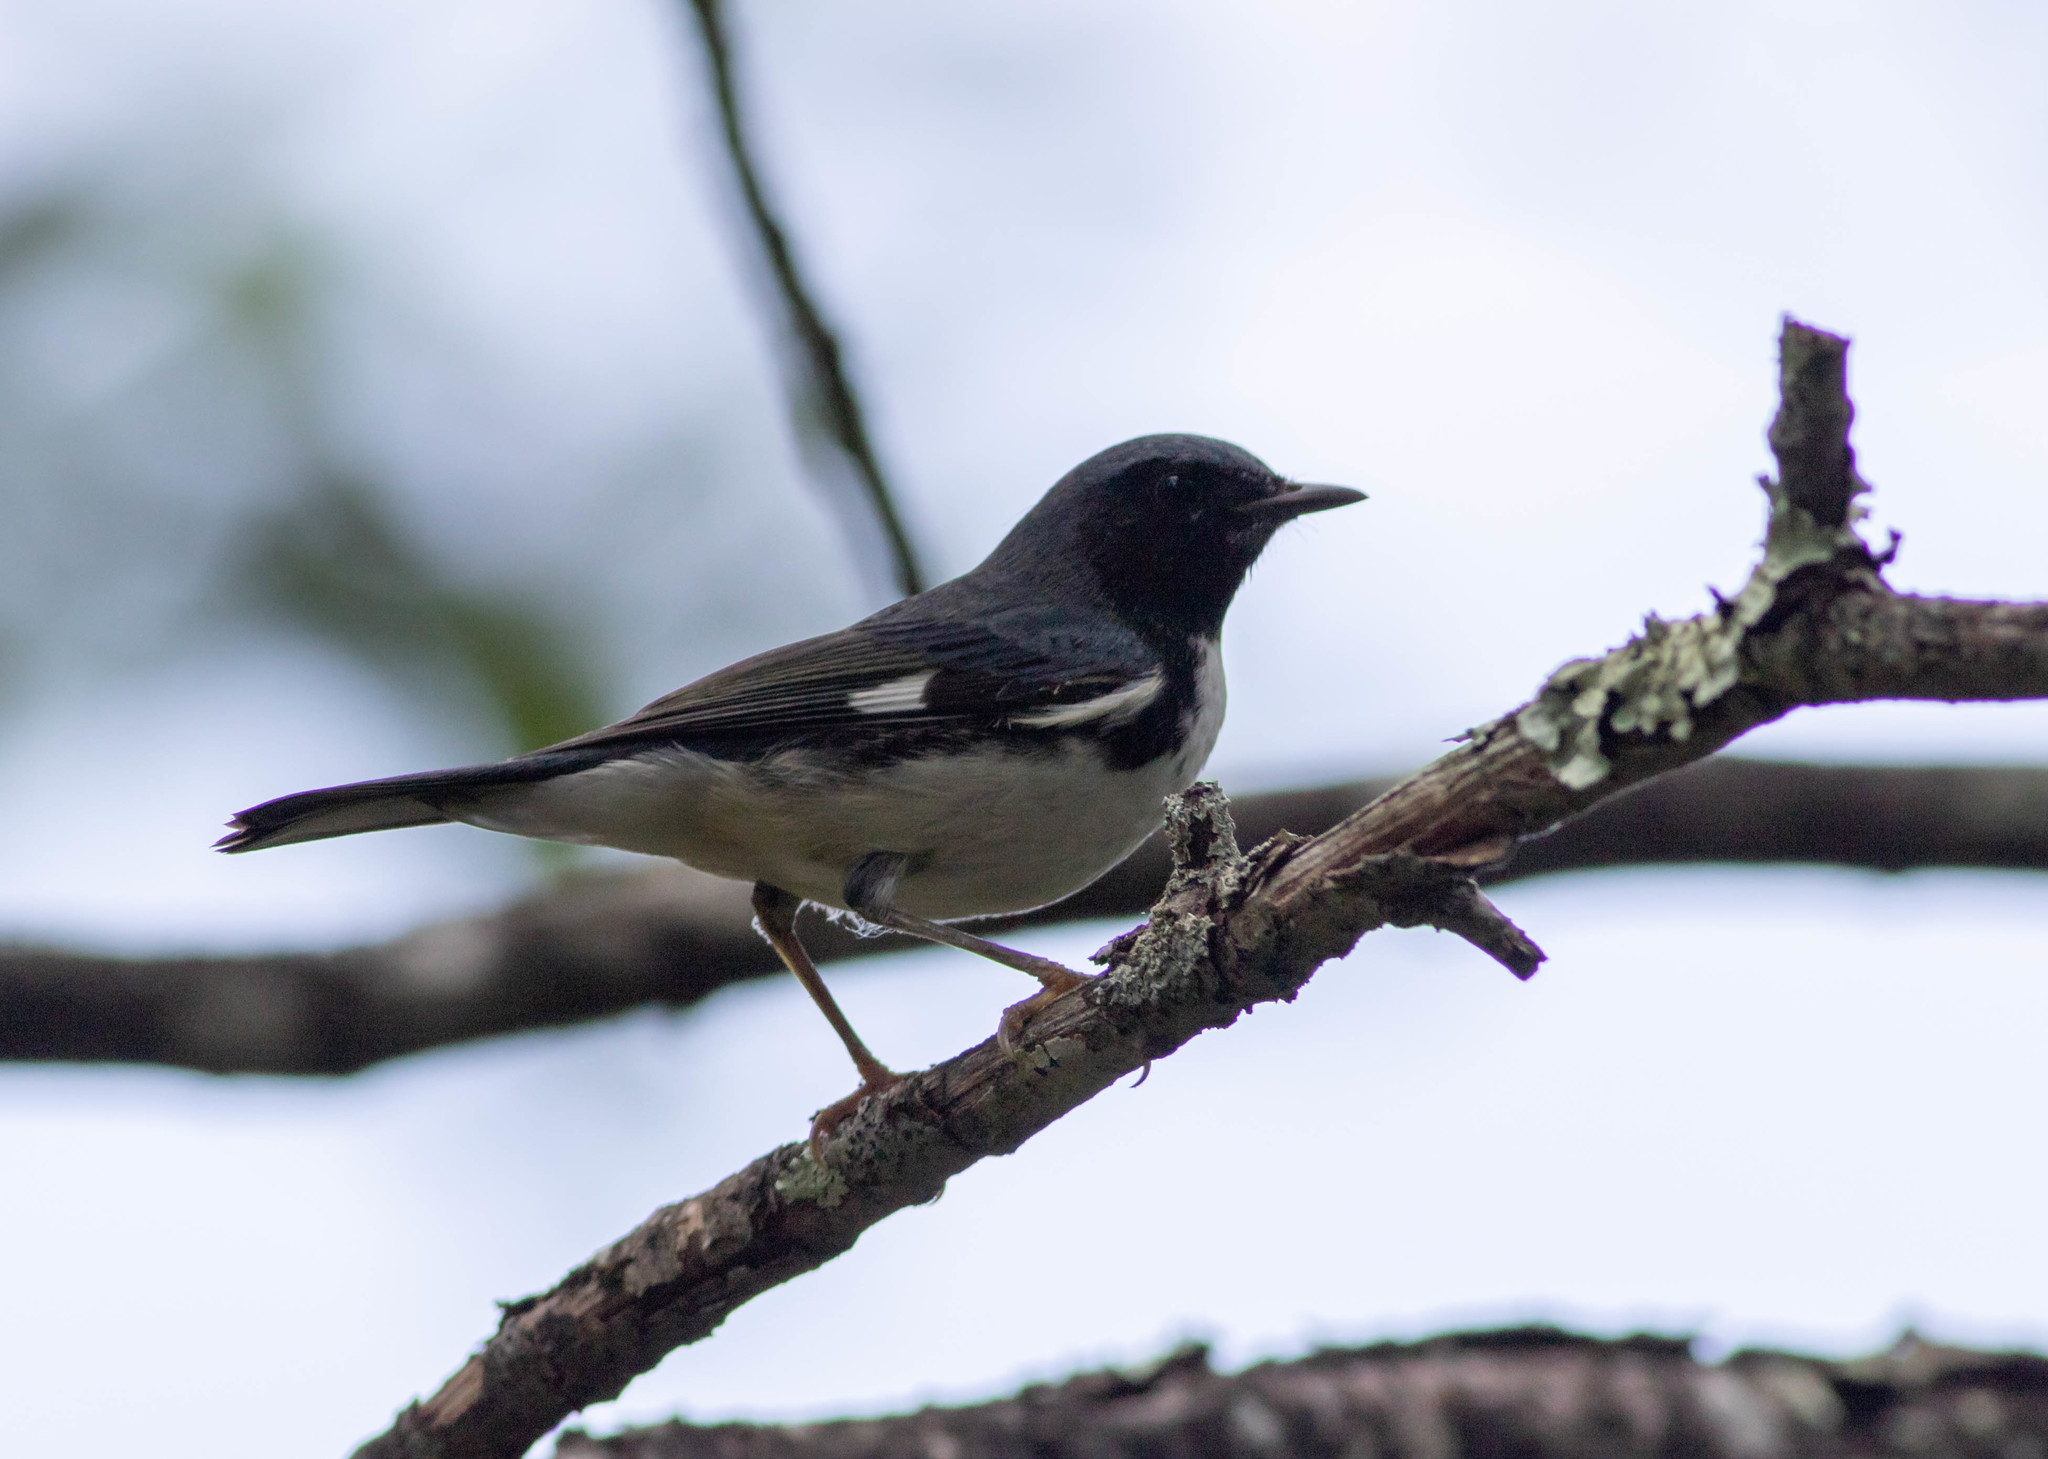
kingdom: Animalia
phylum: Chordata
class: Aves
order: Passeriformes
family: Parulidae
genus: Setophaga
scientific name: Setophaga caerulescens
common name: Black-throated blue warbler
